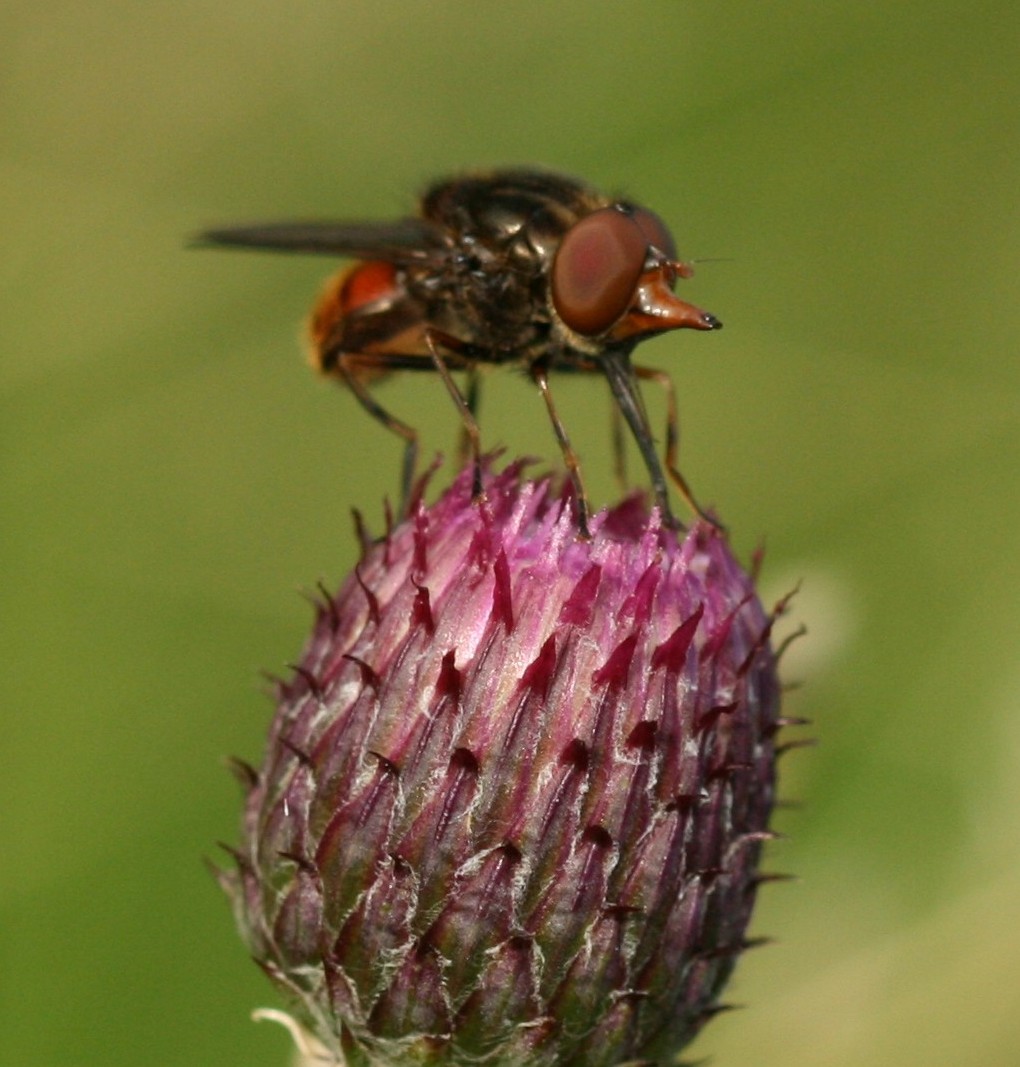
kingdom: Animalia
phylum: Arthropoda
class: Insecta
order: Diptera
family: Syrphidae
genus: Rhingia
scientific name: Rhingia campestris
